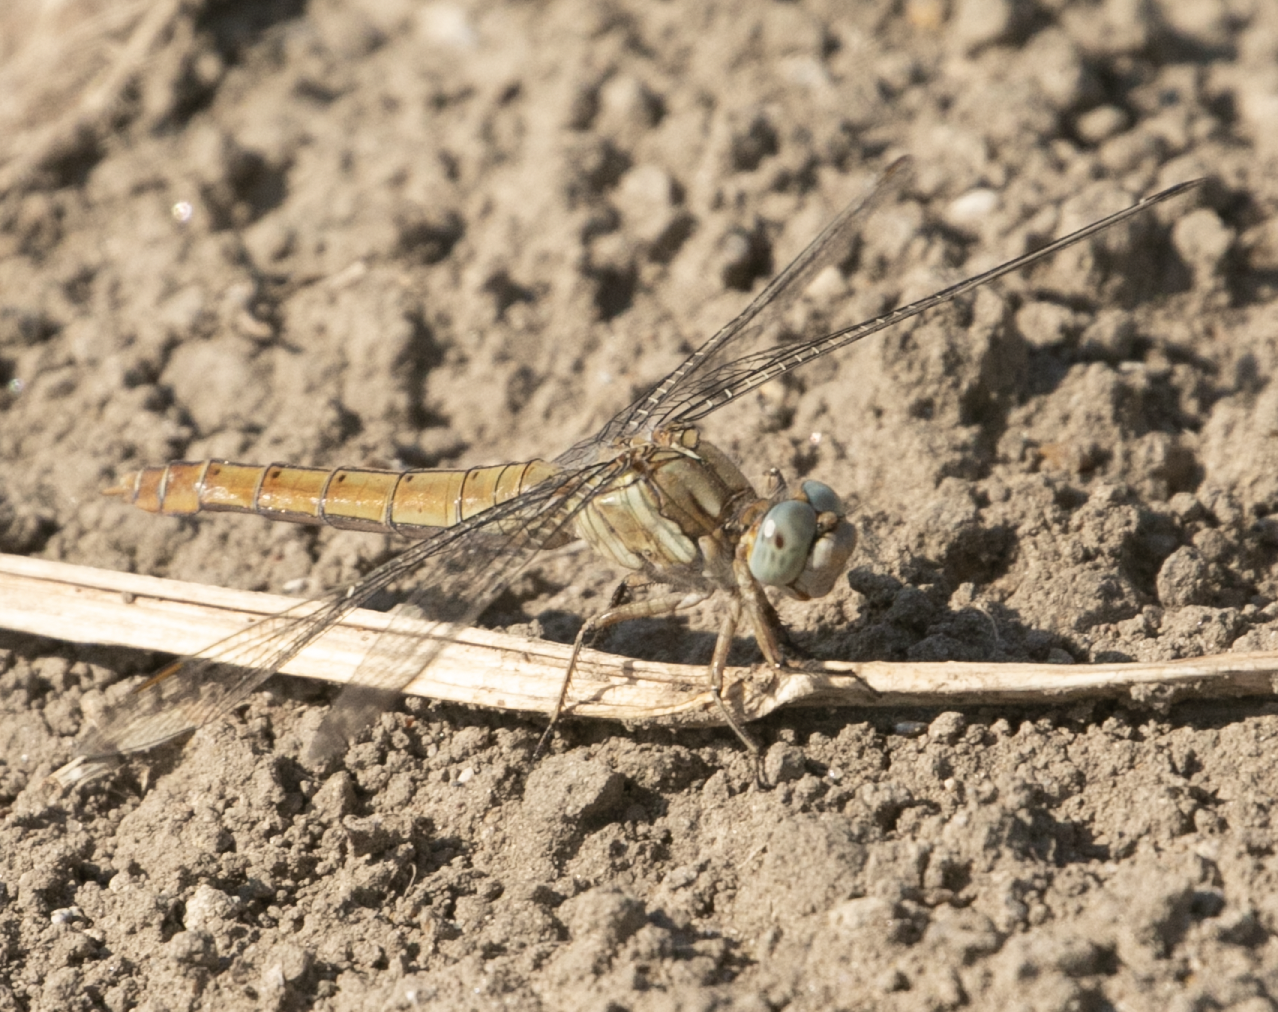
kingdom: Animalia
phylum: Arthropoda
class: Insecta
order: Odonata
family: Libellulidae
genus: Orthetrum
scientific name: Orthetrum brunneum
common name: Southern skimmer
